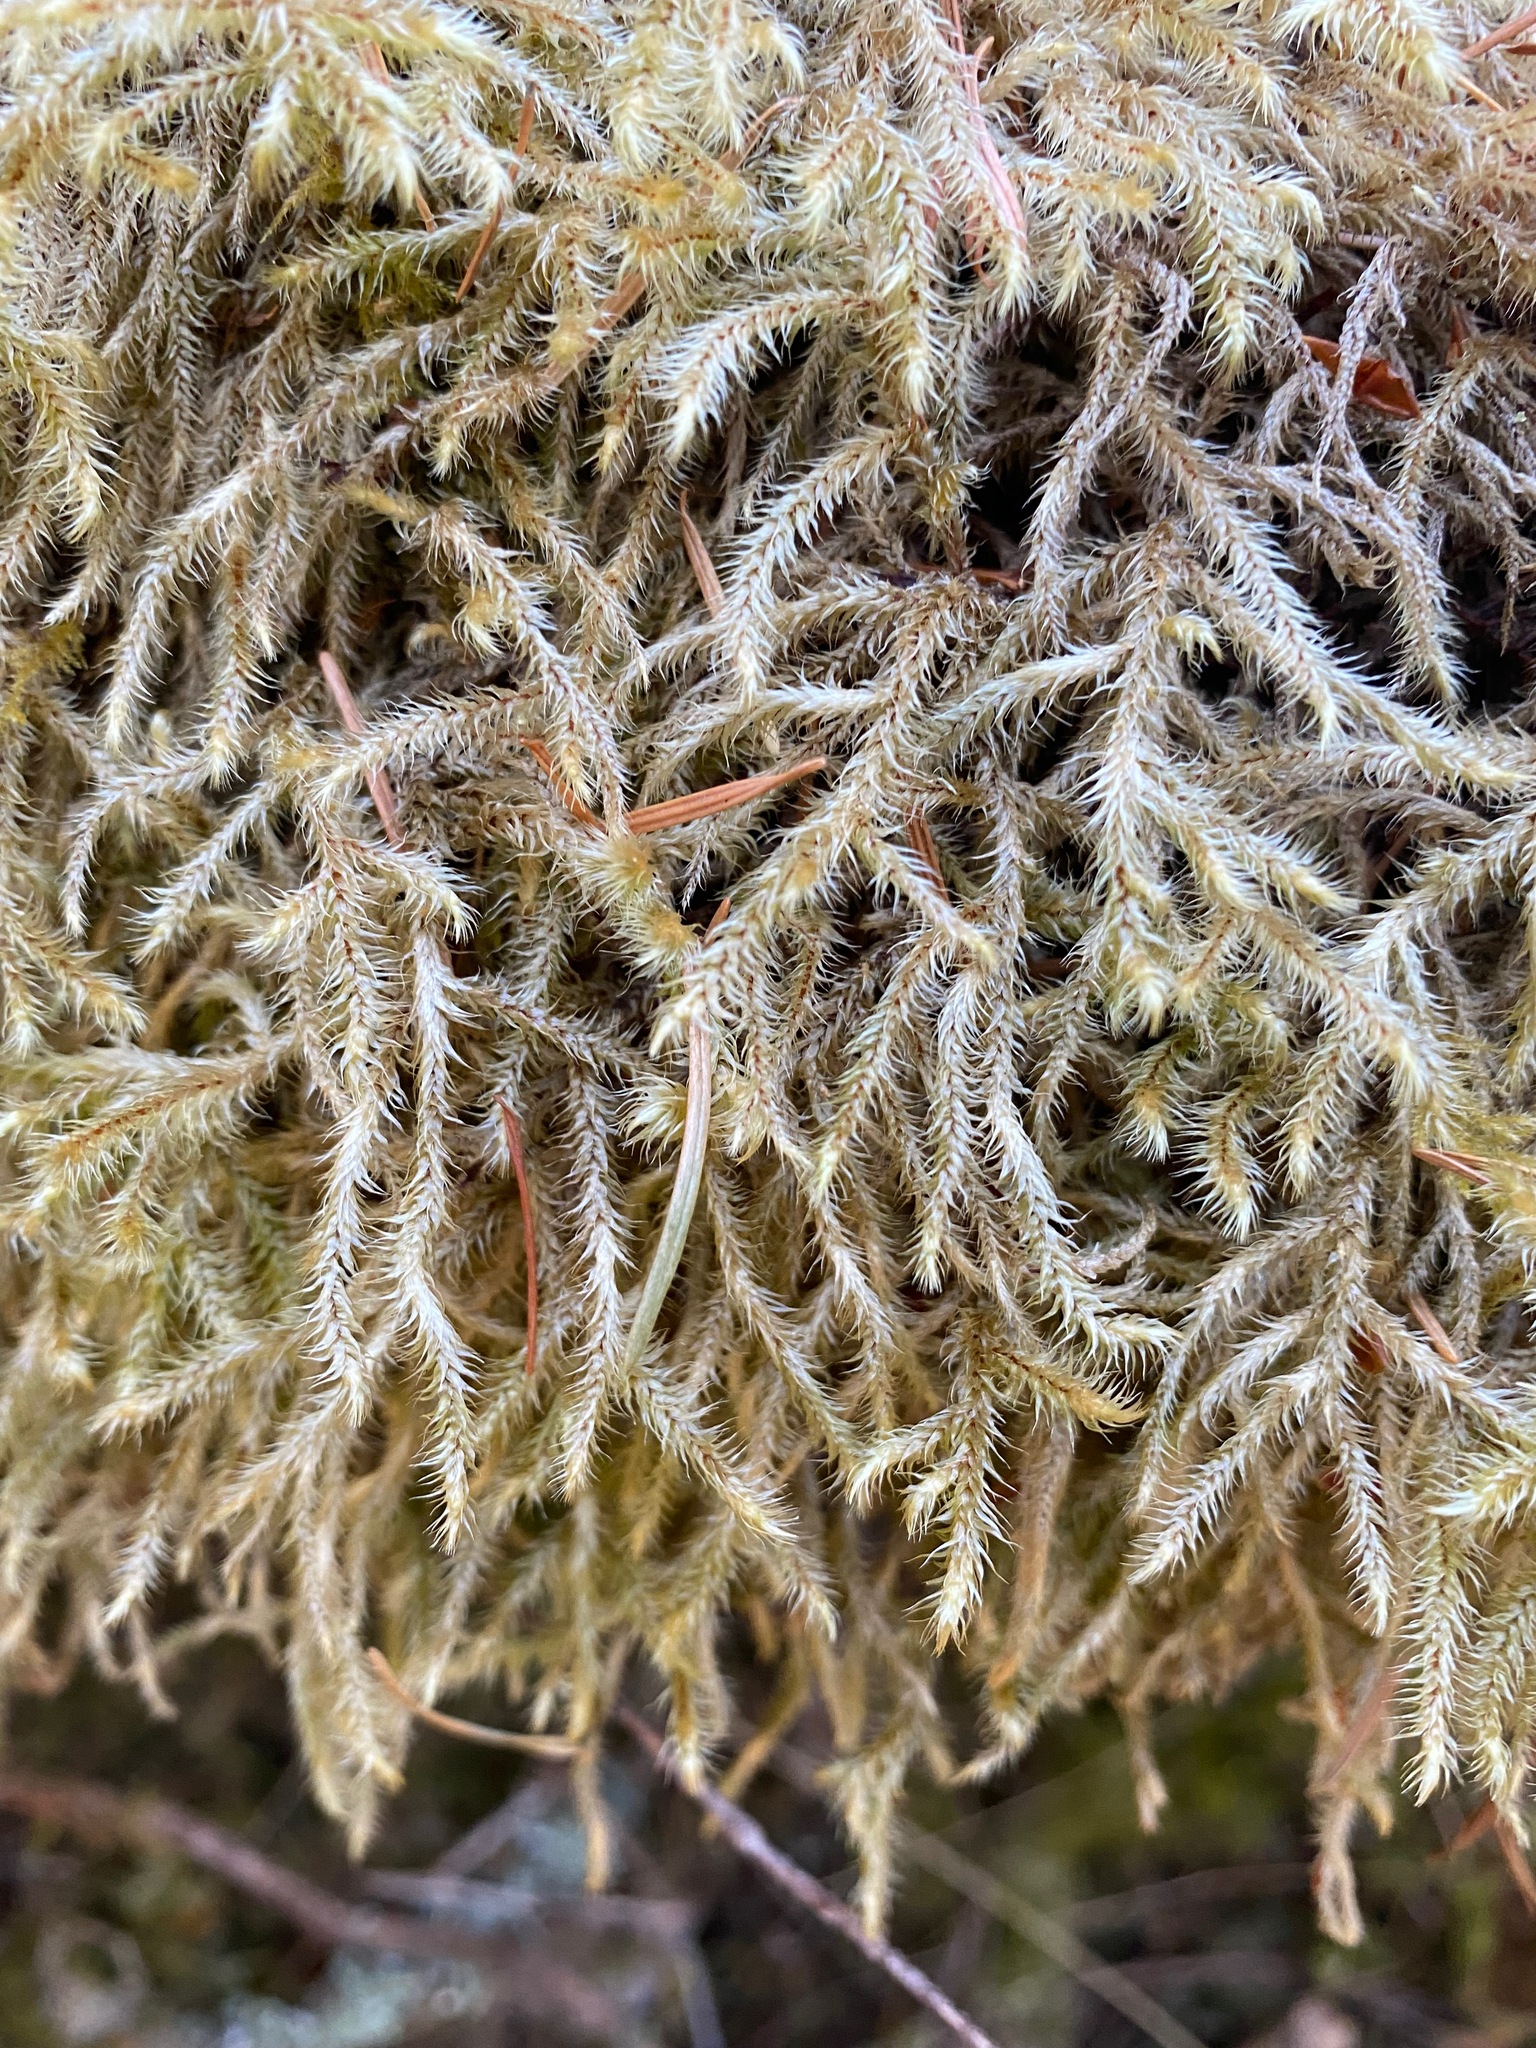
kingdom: Plantae
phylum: Bryophyta
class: Bryopsida
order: Hypnales
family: Hylocomiaceae
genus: Rhytidiadelphus
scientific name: Rhytidiadelphus loreus
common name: Lanky moss
